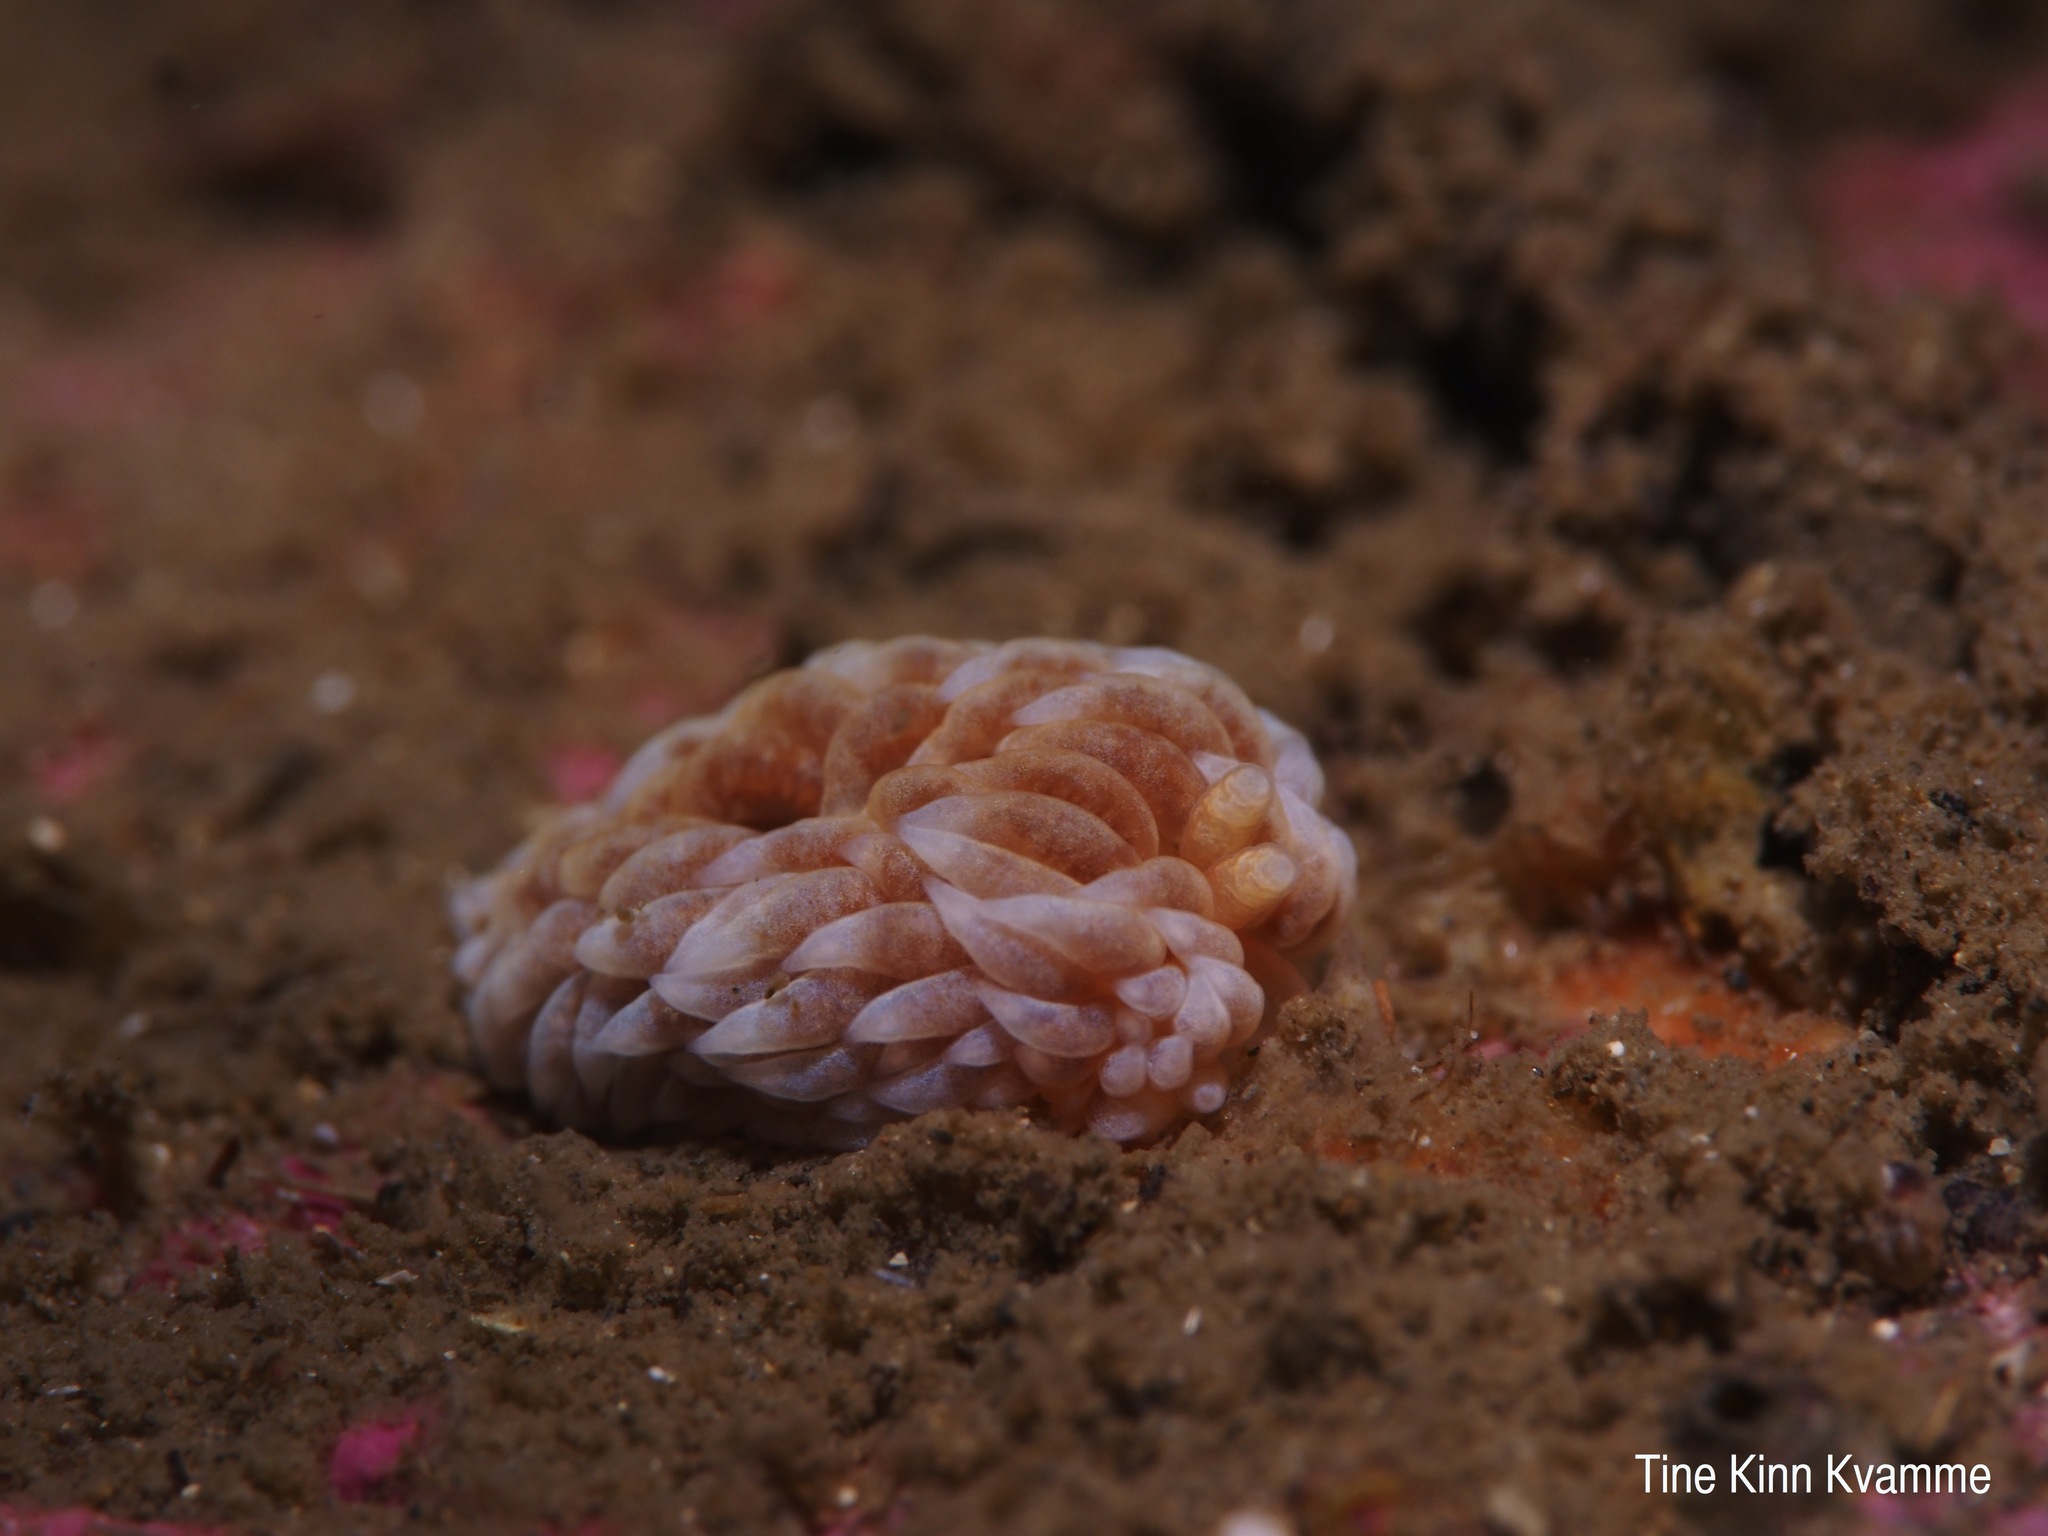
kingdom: Animalia
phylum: Mollusca
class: Gastropoda
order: Nudibranchia
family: Aeolidiidae
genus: Aeolidiella
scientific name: Aeolidiella glauca
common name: Orange-brown aeolid
